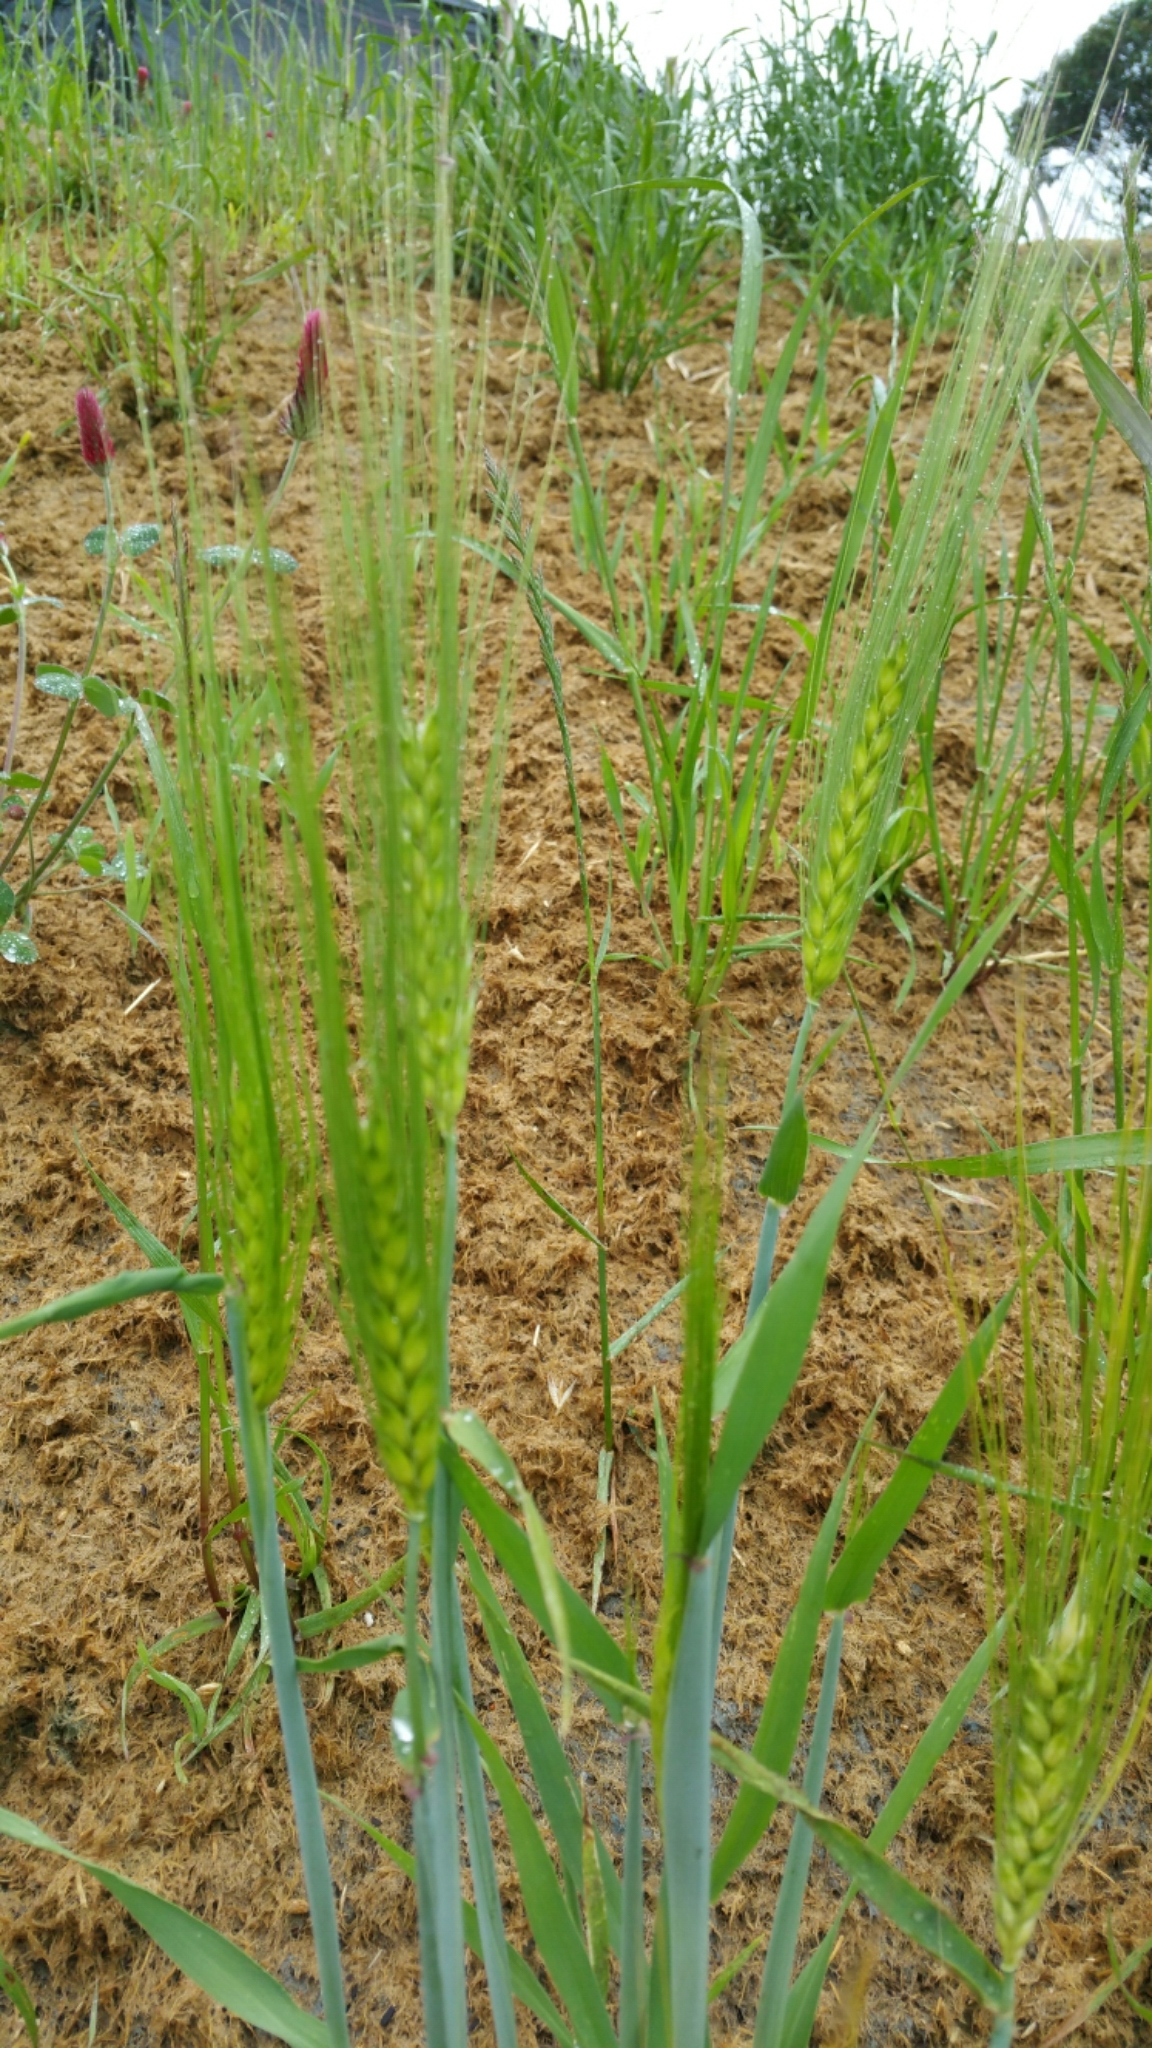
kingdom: Plantae
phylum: Tracheophyta
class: Liliopsida
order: Poales
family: Poaceae
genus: Triticum
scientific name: Triticum aestivum
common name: Common wheat
